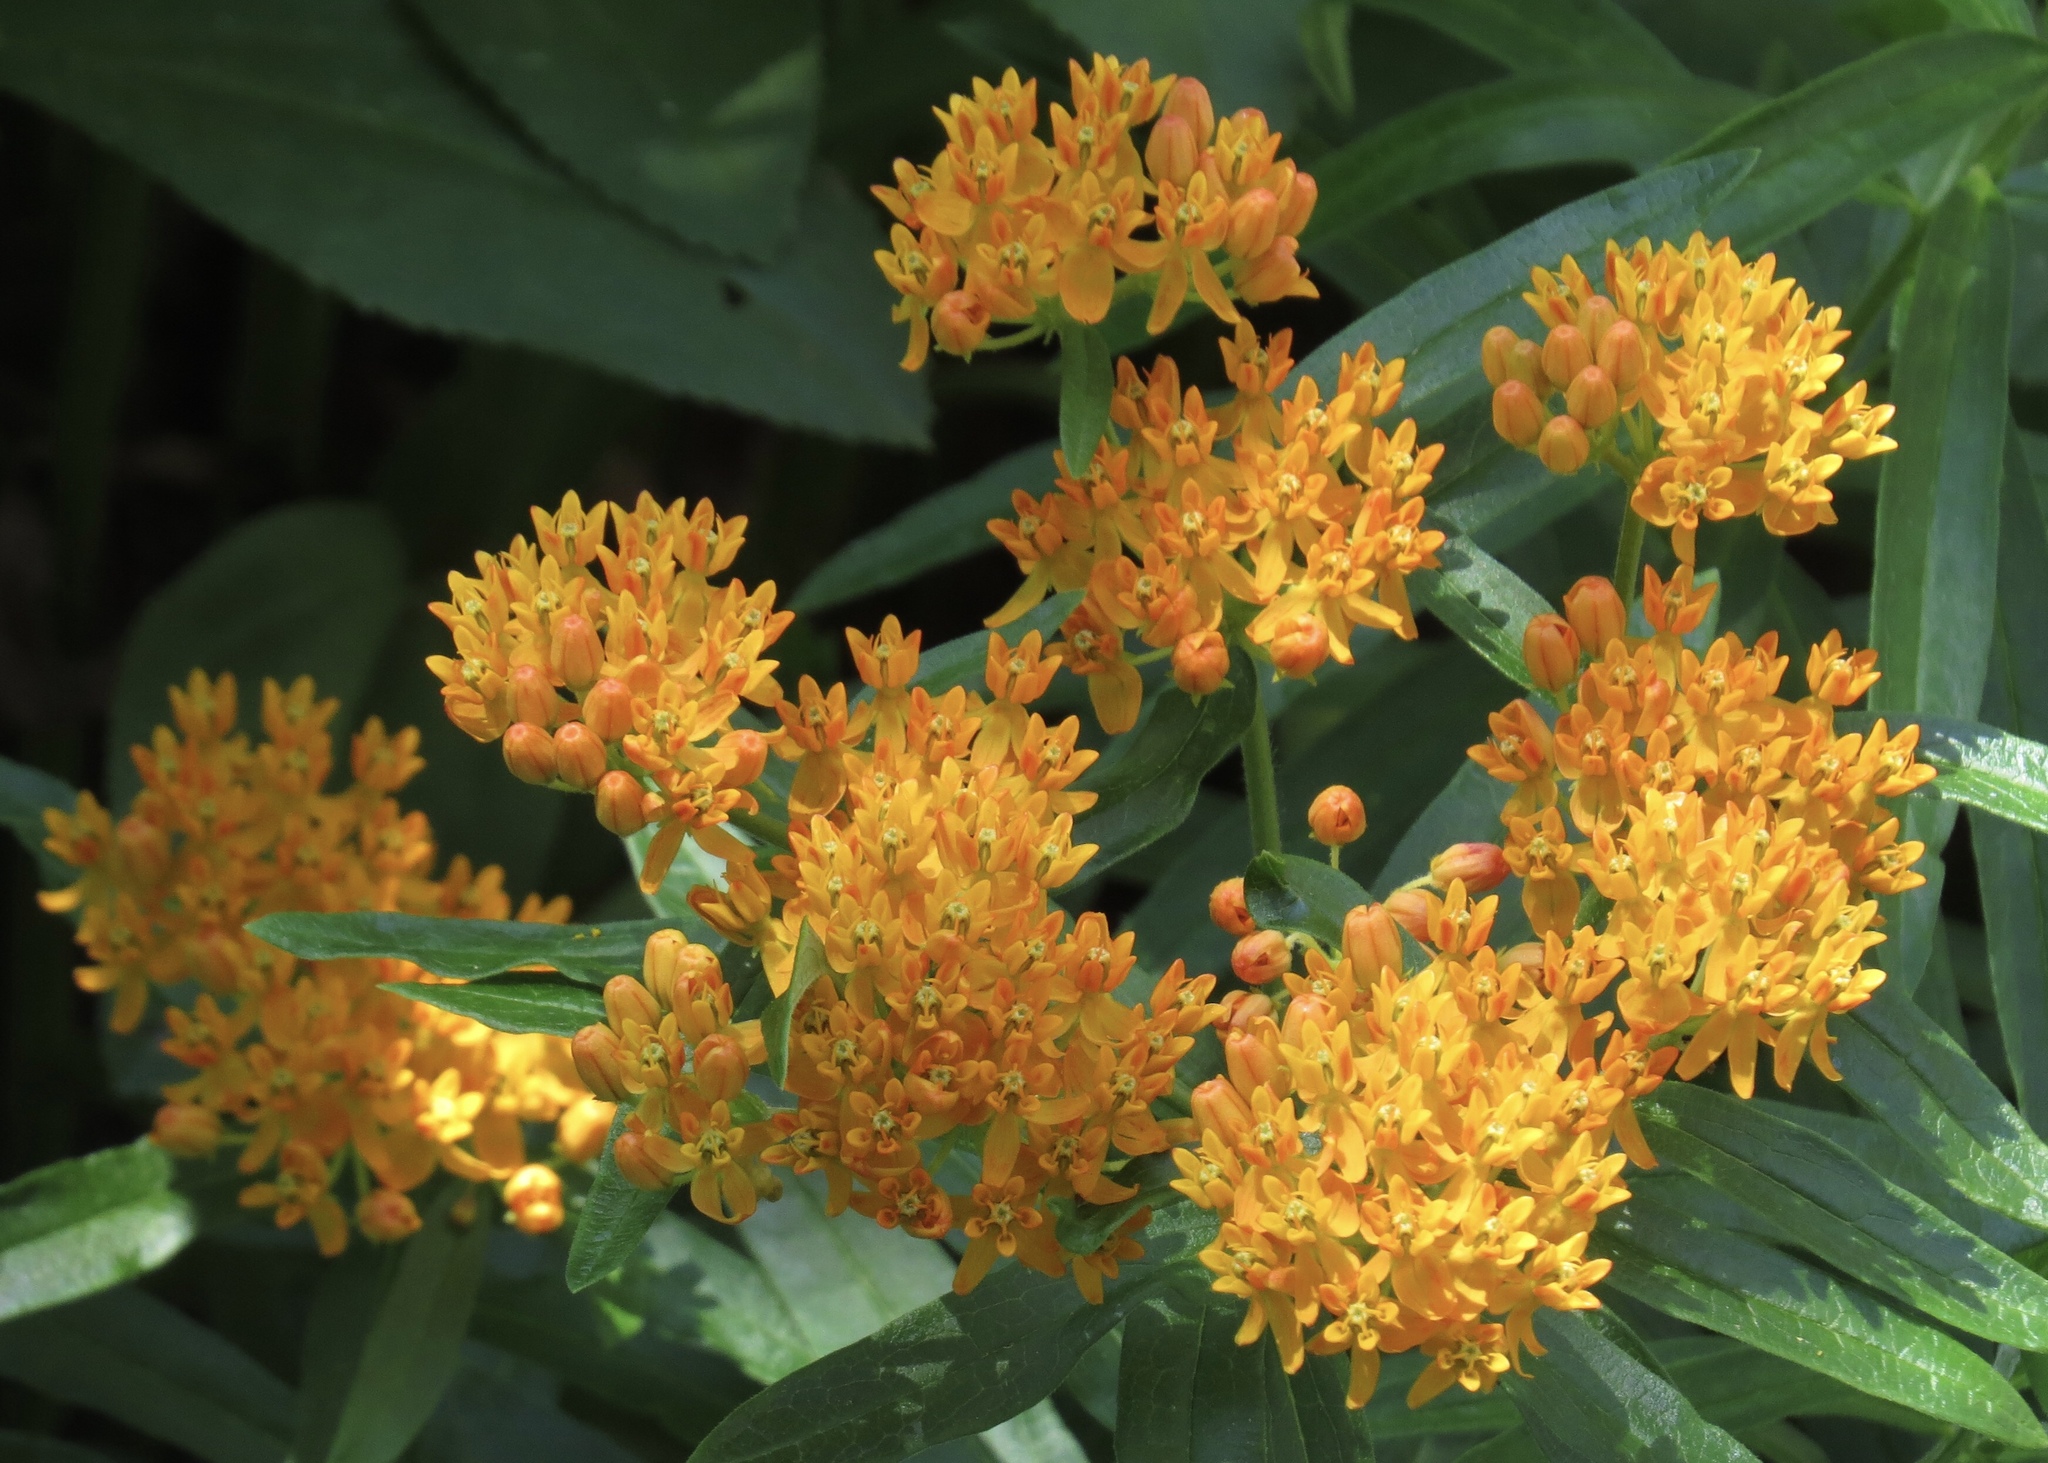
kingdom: Plantae
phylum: Tracheophyta
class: Magnoliopsida
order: Gentianales
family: Apocynaceae
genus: Asclepias
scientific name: Asclepias tuberosa
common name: Butterfly milkweed
